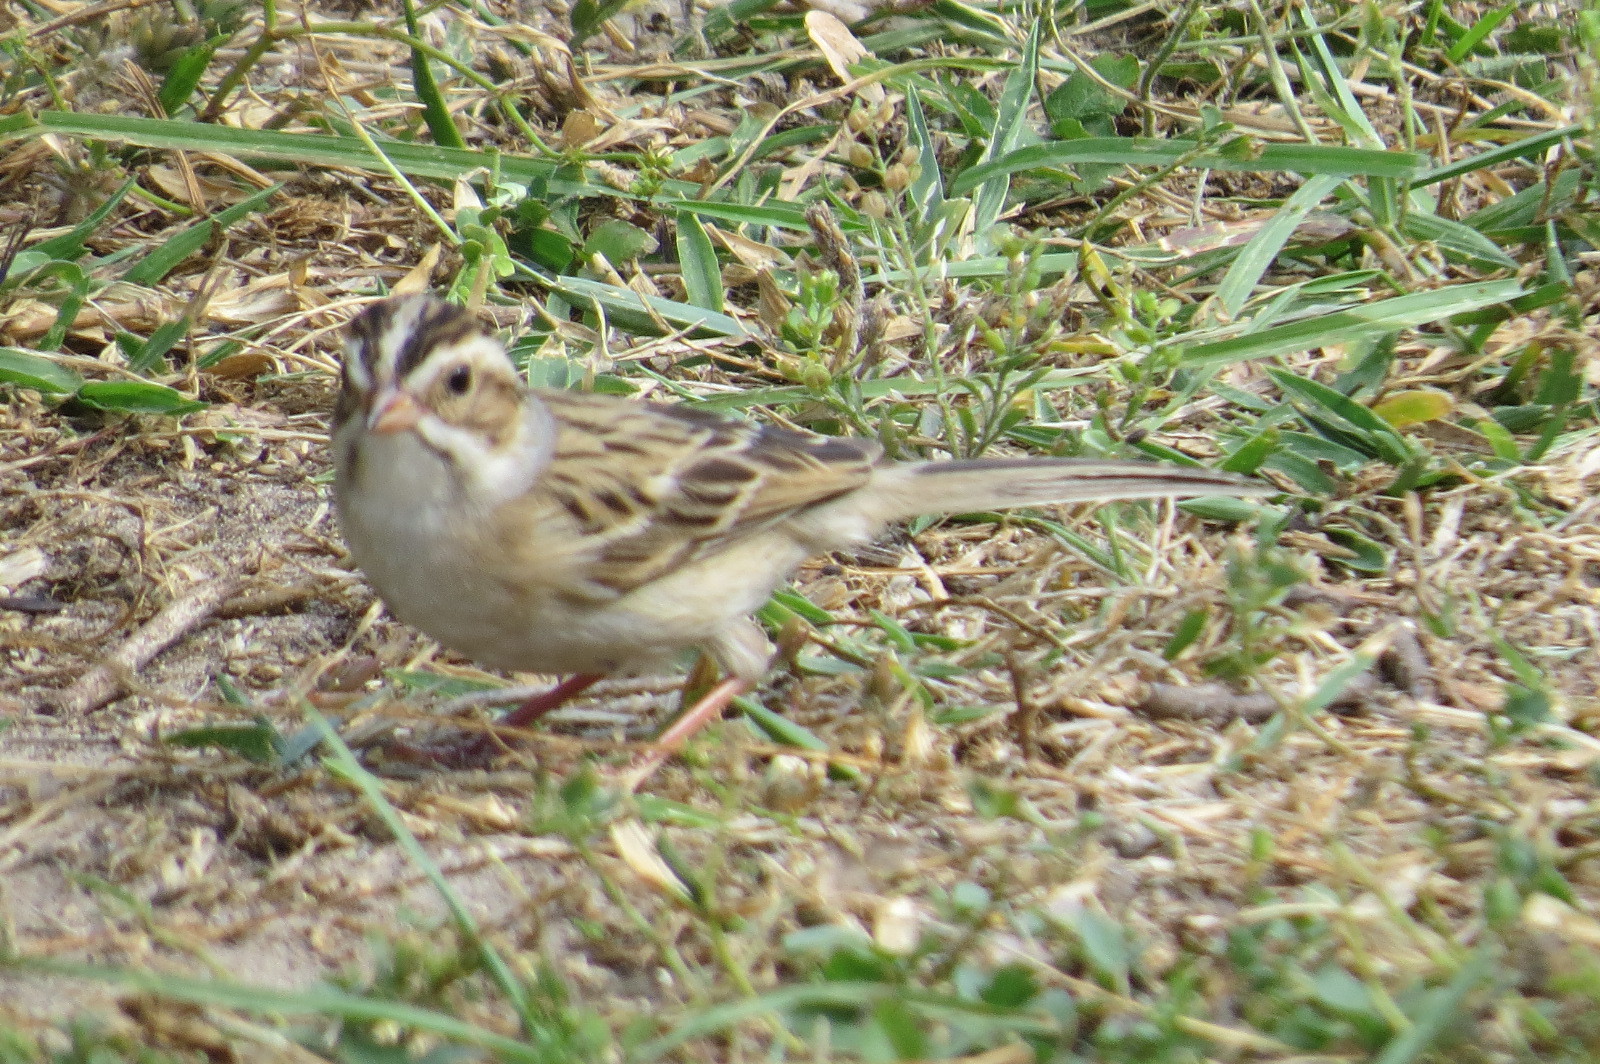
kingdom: Animalia
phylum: Chordata
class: Aves
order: Passeriformes
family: Passerellidae
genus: Spizella
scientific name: Spizella pallida
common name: Clay-colored sparrow
